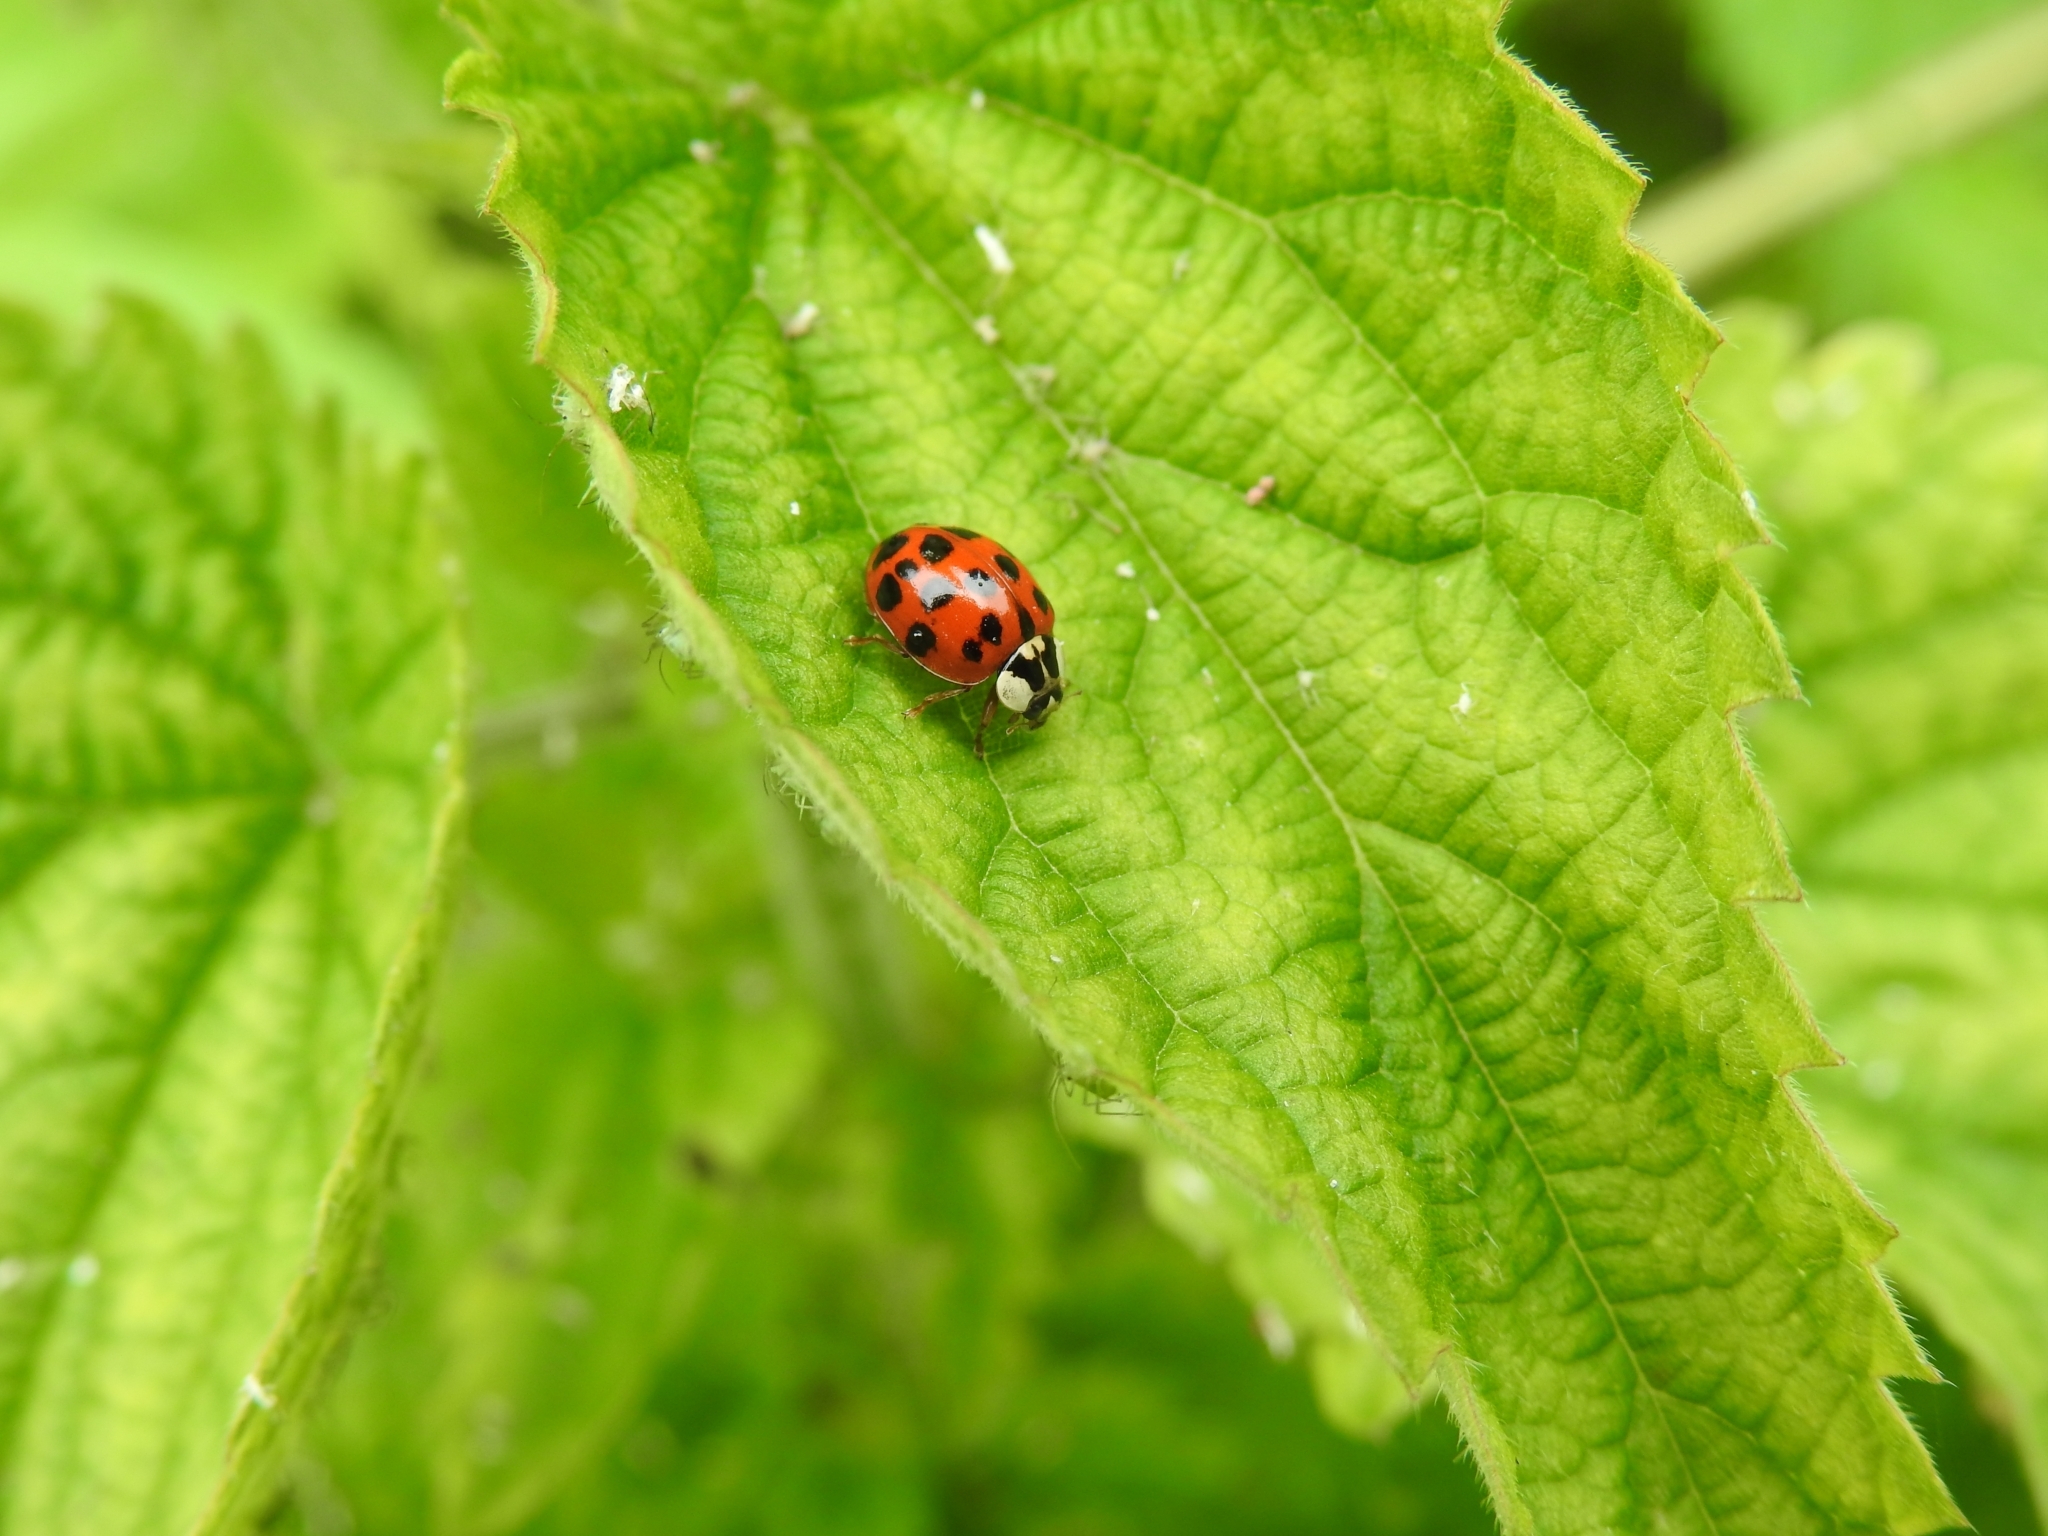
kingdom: Animalia
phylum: Arthropoda
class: Insecta
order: Coleoptera
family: Coccinellidae
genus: Harmonia
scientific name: Harmonia axyridis
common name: Harlequin ladybird
